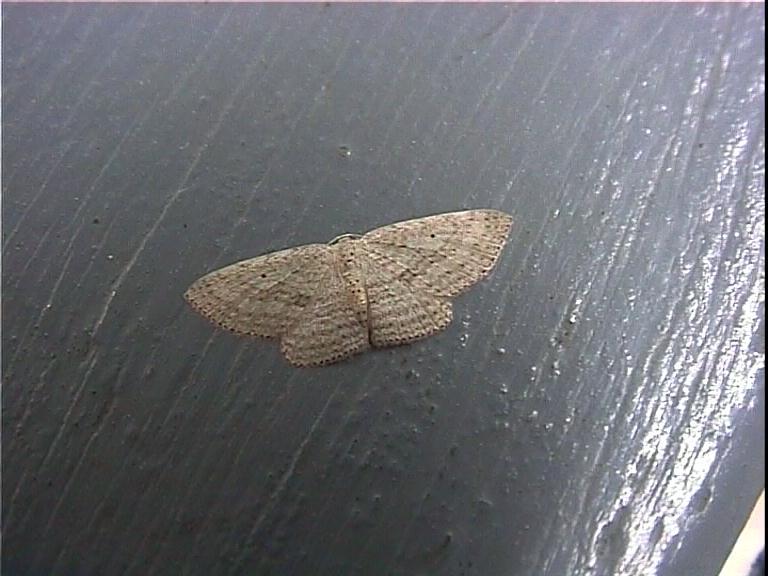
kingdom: Animalia
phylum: Arthropoda
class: Insecta
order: Lepidoptera
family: Geometridae
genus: Poecilasthena
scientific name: Poecilasthena schistaria
